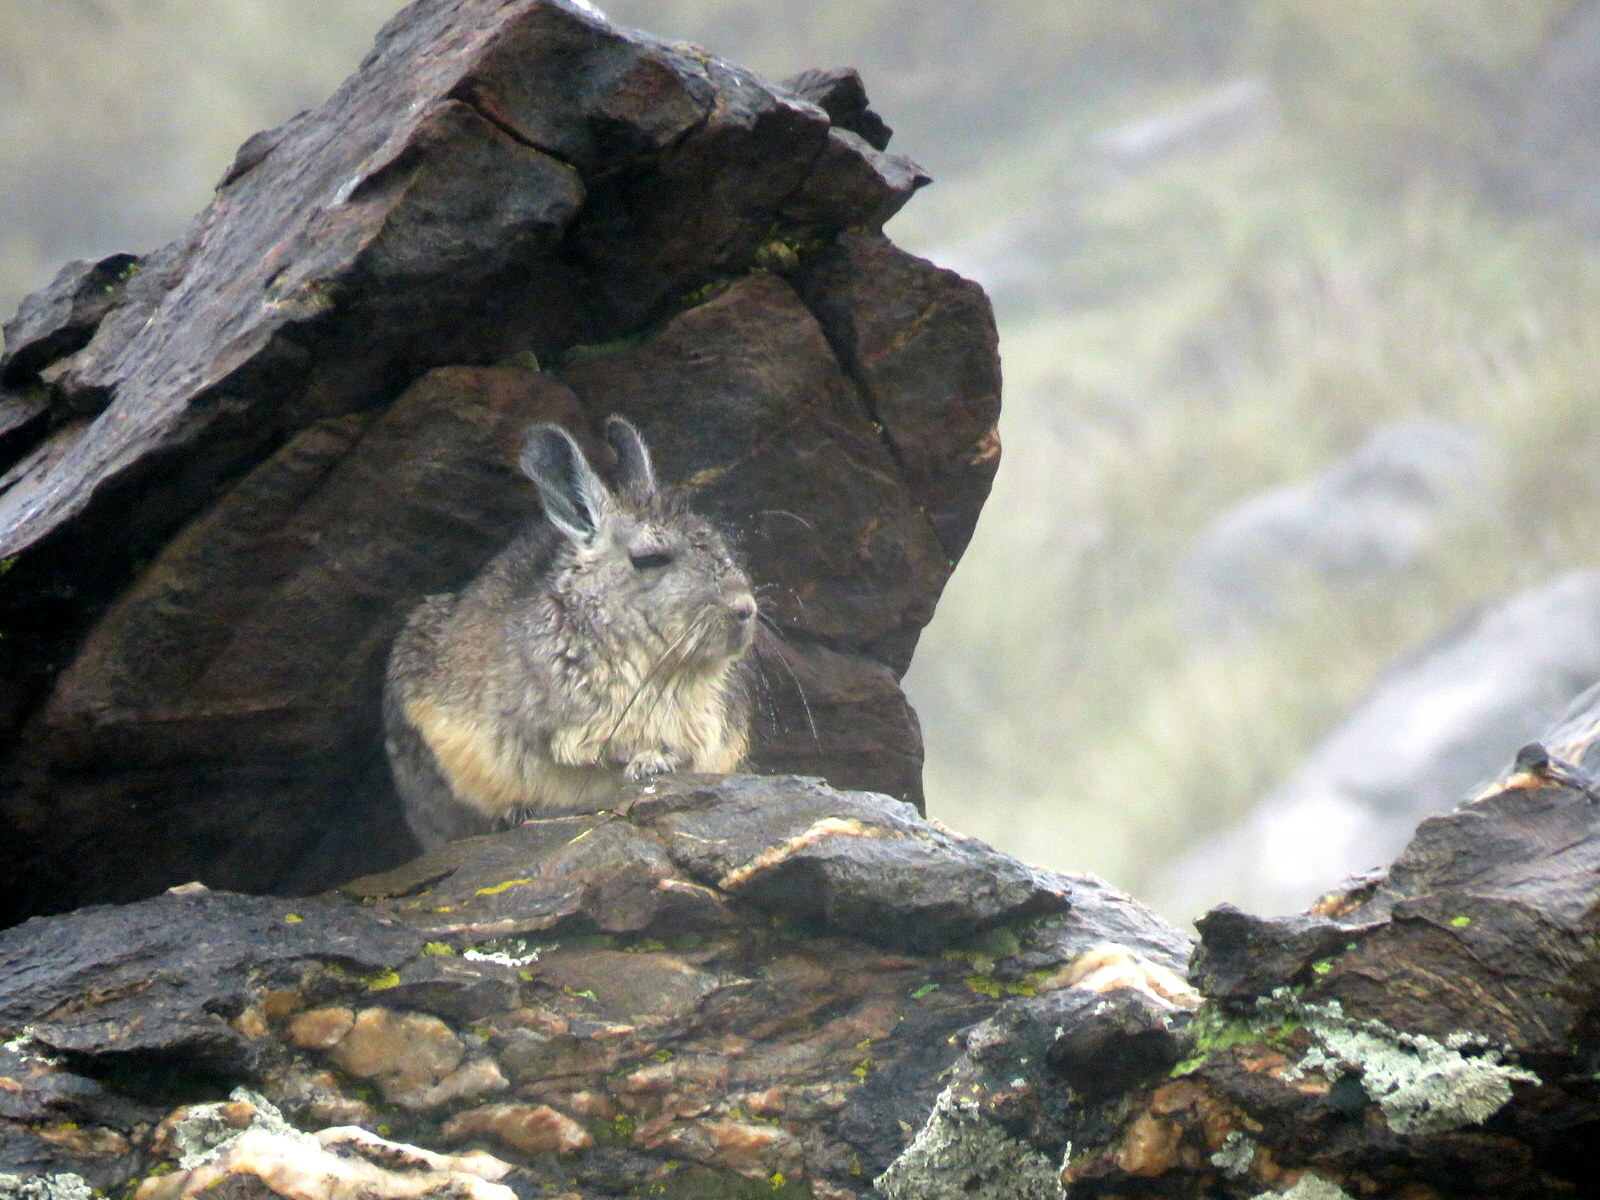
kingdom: Animalia
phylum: Chordata
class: Mammalia
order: Rodentia
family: Chinchillidae
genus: Lagidium
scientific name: Lagidium viscacia
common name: Southern viscacha
